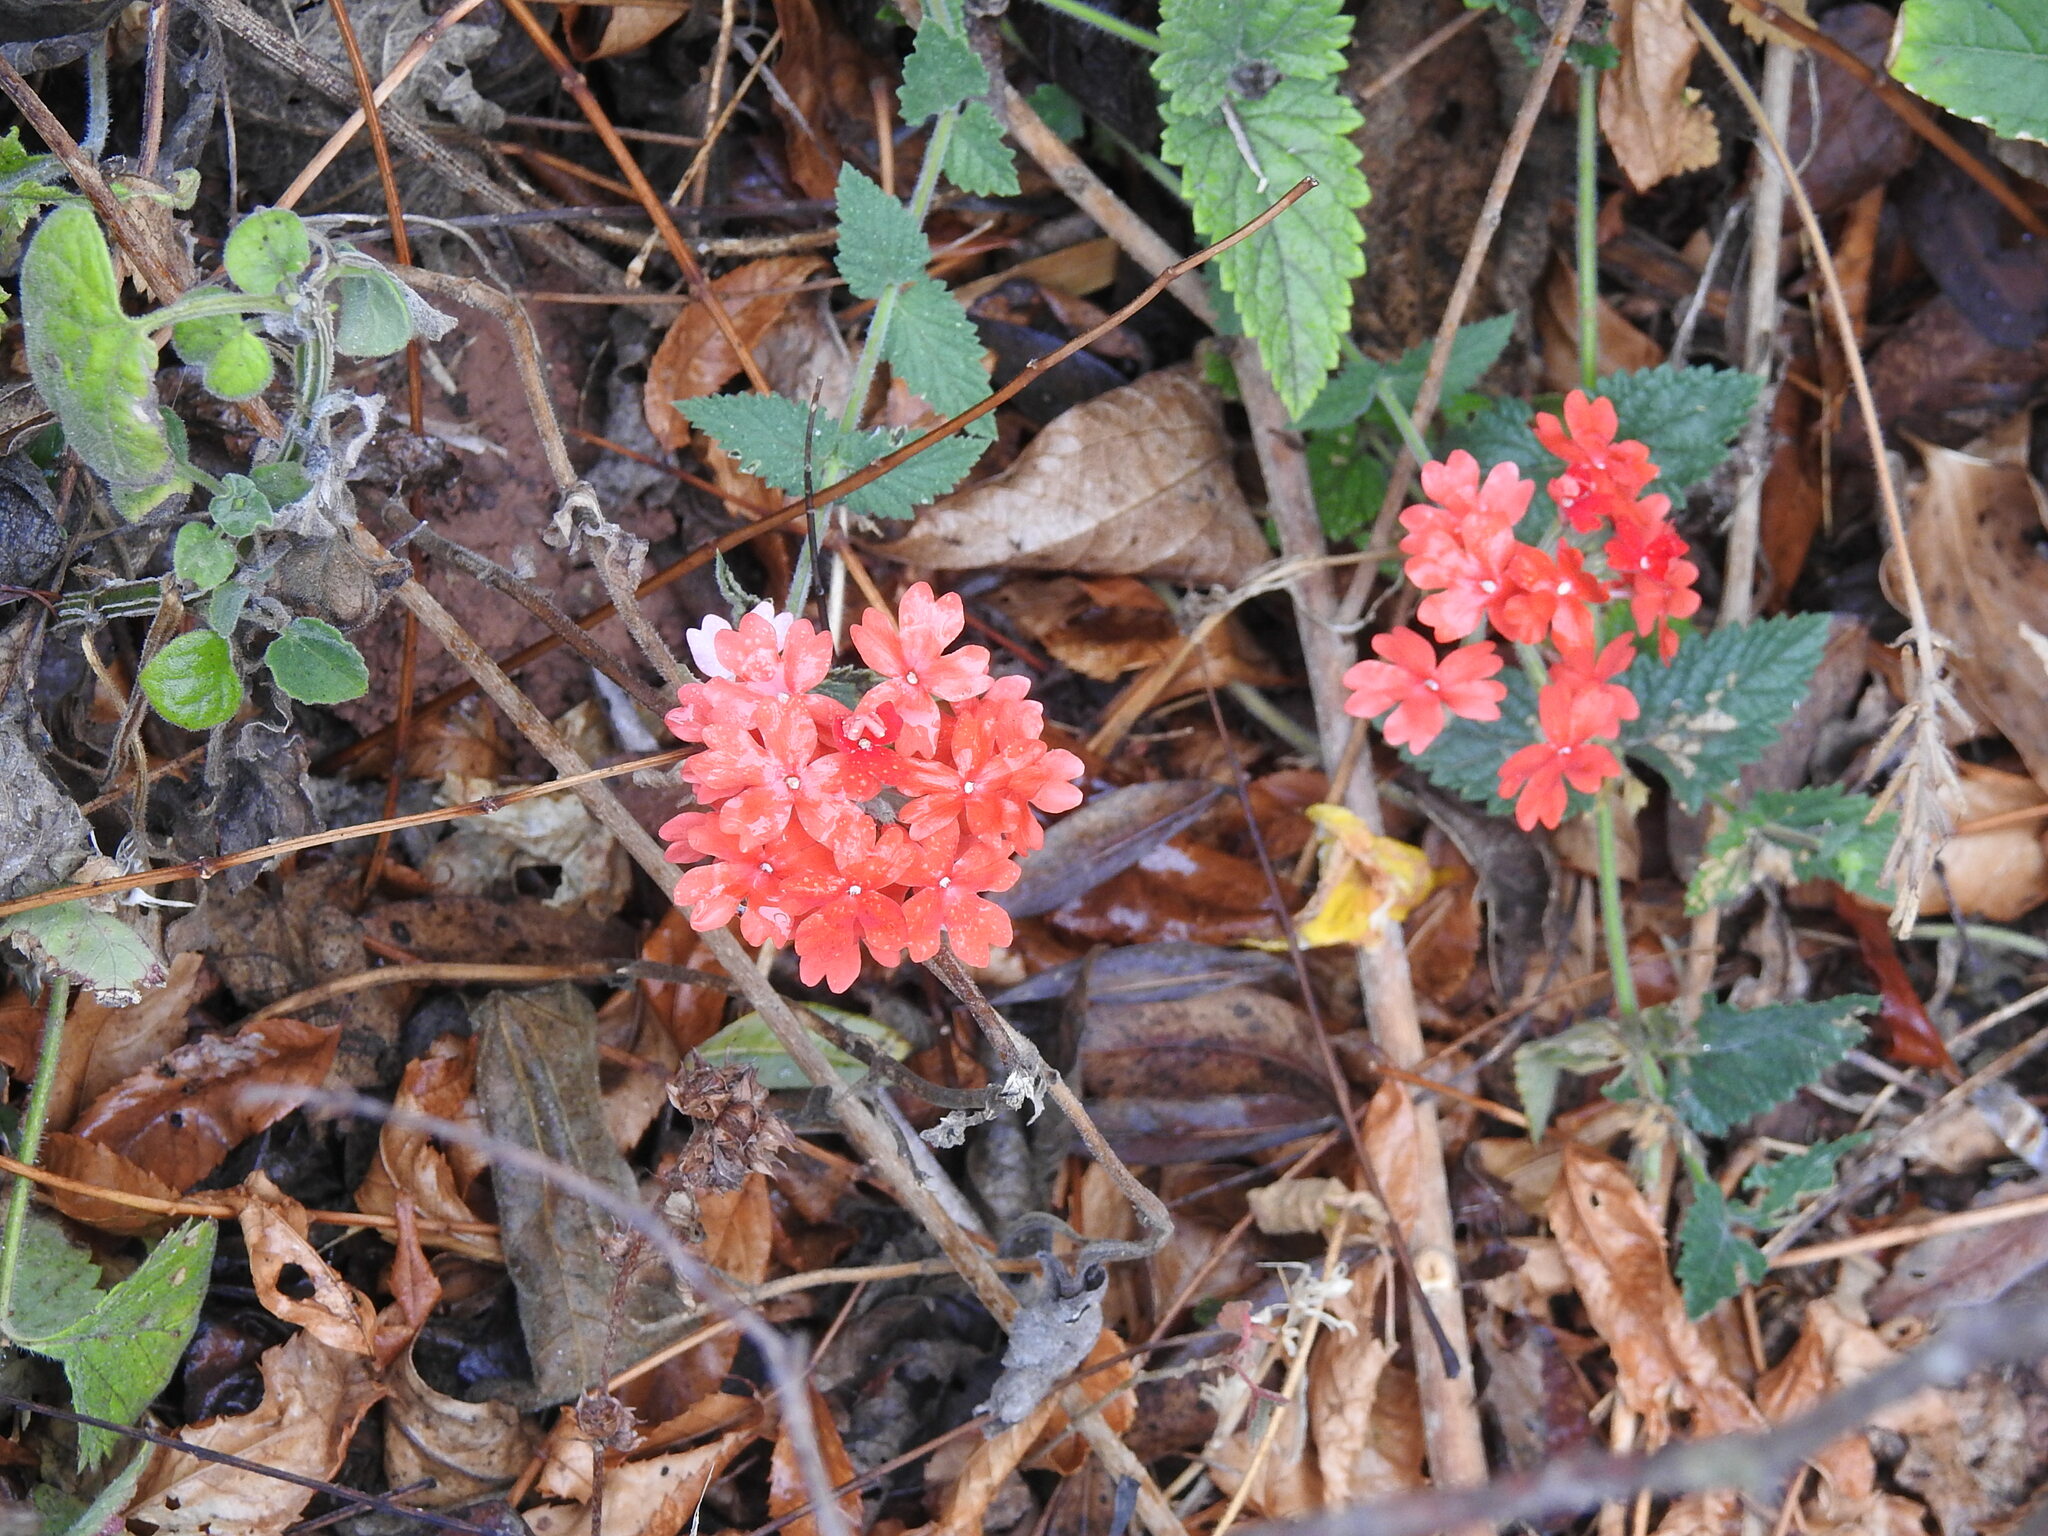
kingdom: Plantae
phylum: Tracheophyta
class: Magnoliopsida
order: Lamiales
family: Verbenaceae
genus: Verbena
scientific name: Verbena peruviana
